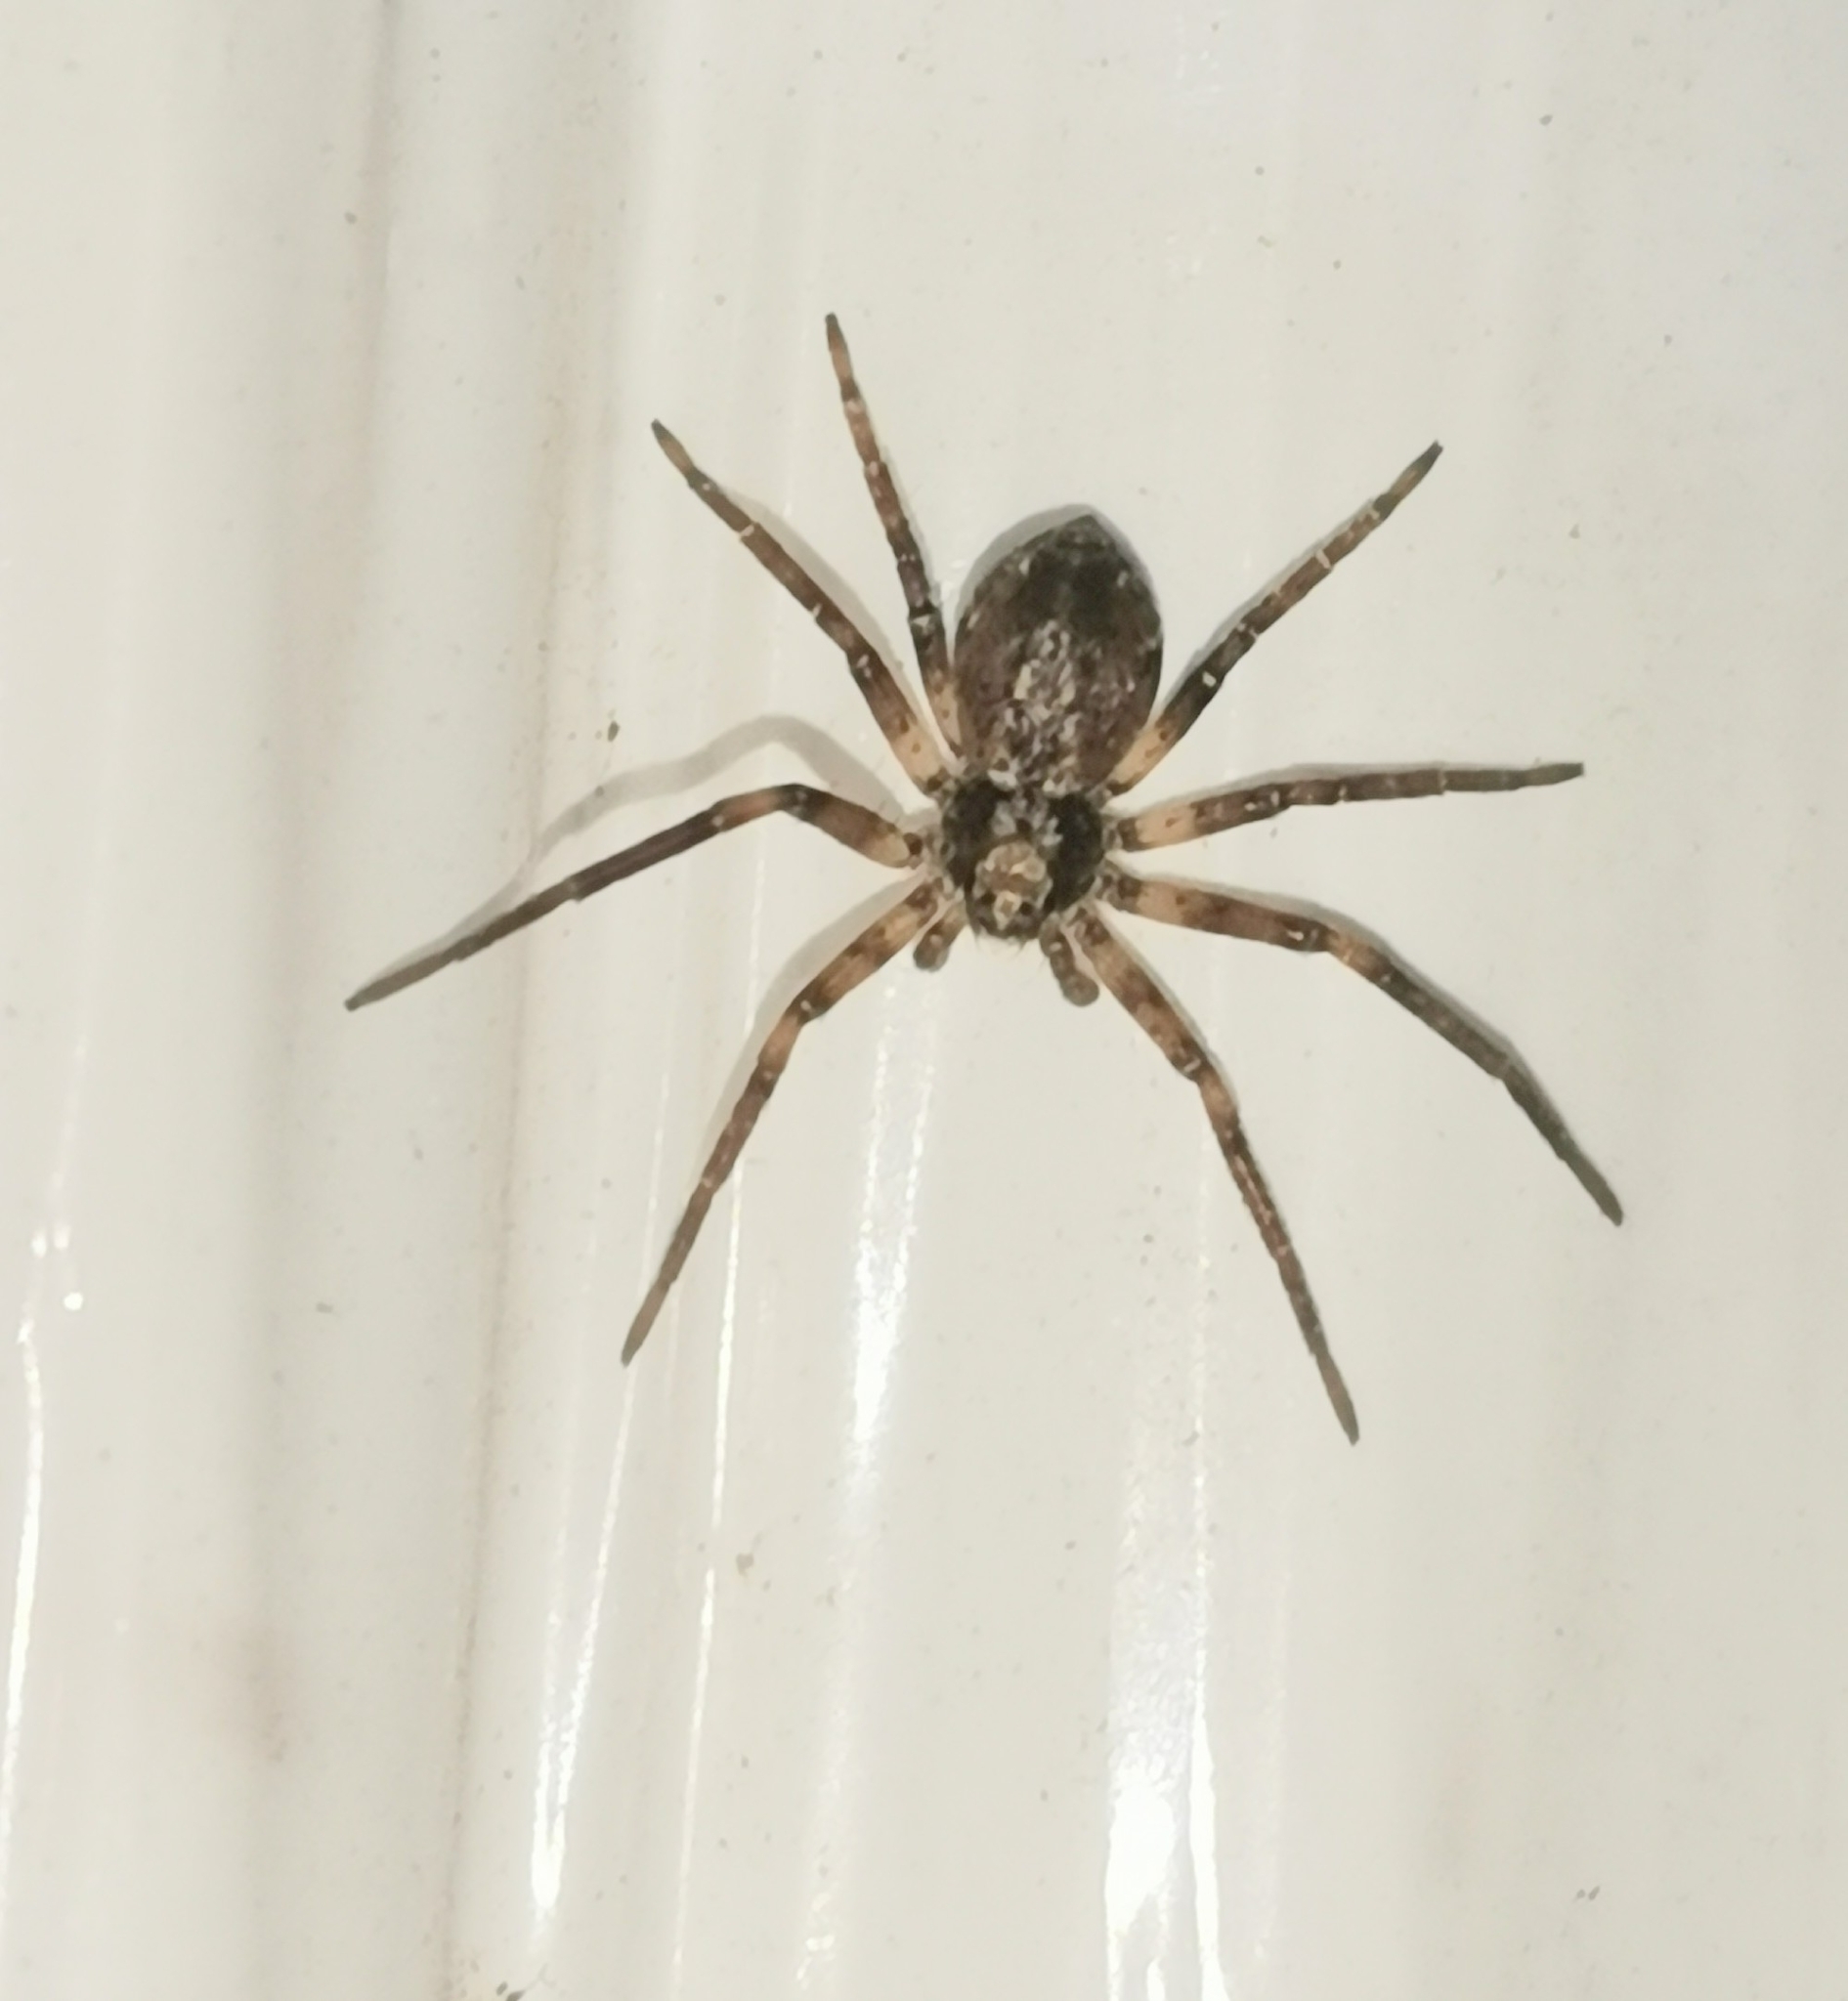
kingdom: Animalia
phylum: Arthropoda
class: Arachnida
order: Araneae
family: Philodromidae
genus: Philodromus
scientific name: Philodromus
